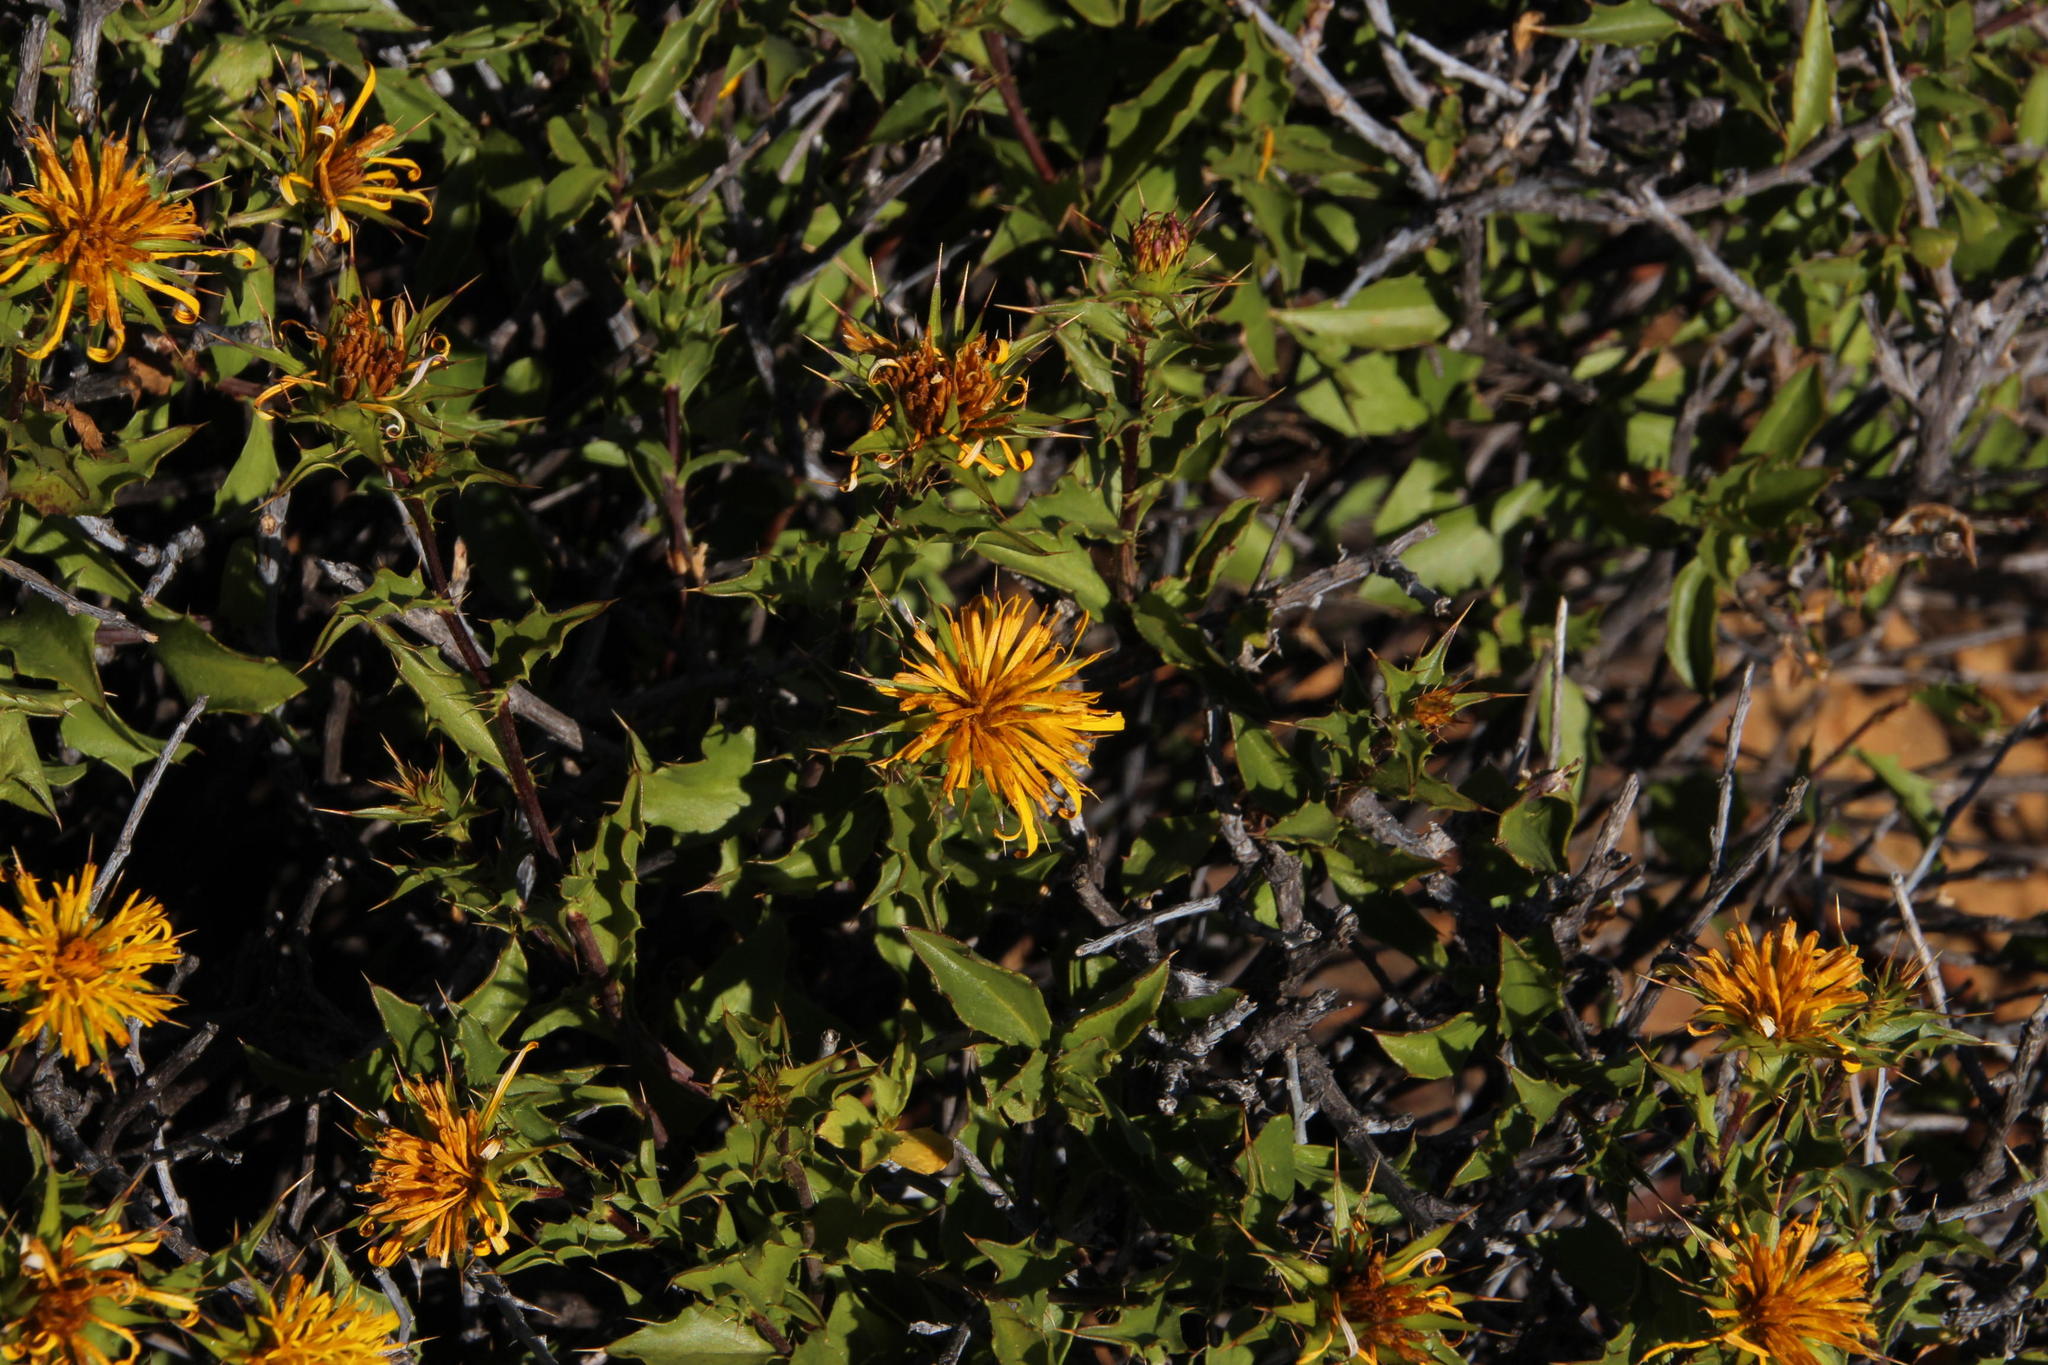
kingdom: Plantae
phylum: Tracheophyta
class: Magnoliopsida
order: Asterales
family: Asteraceae
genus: Berkheya
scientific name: Berkheya spinosa
